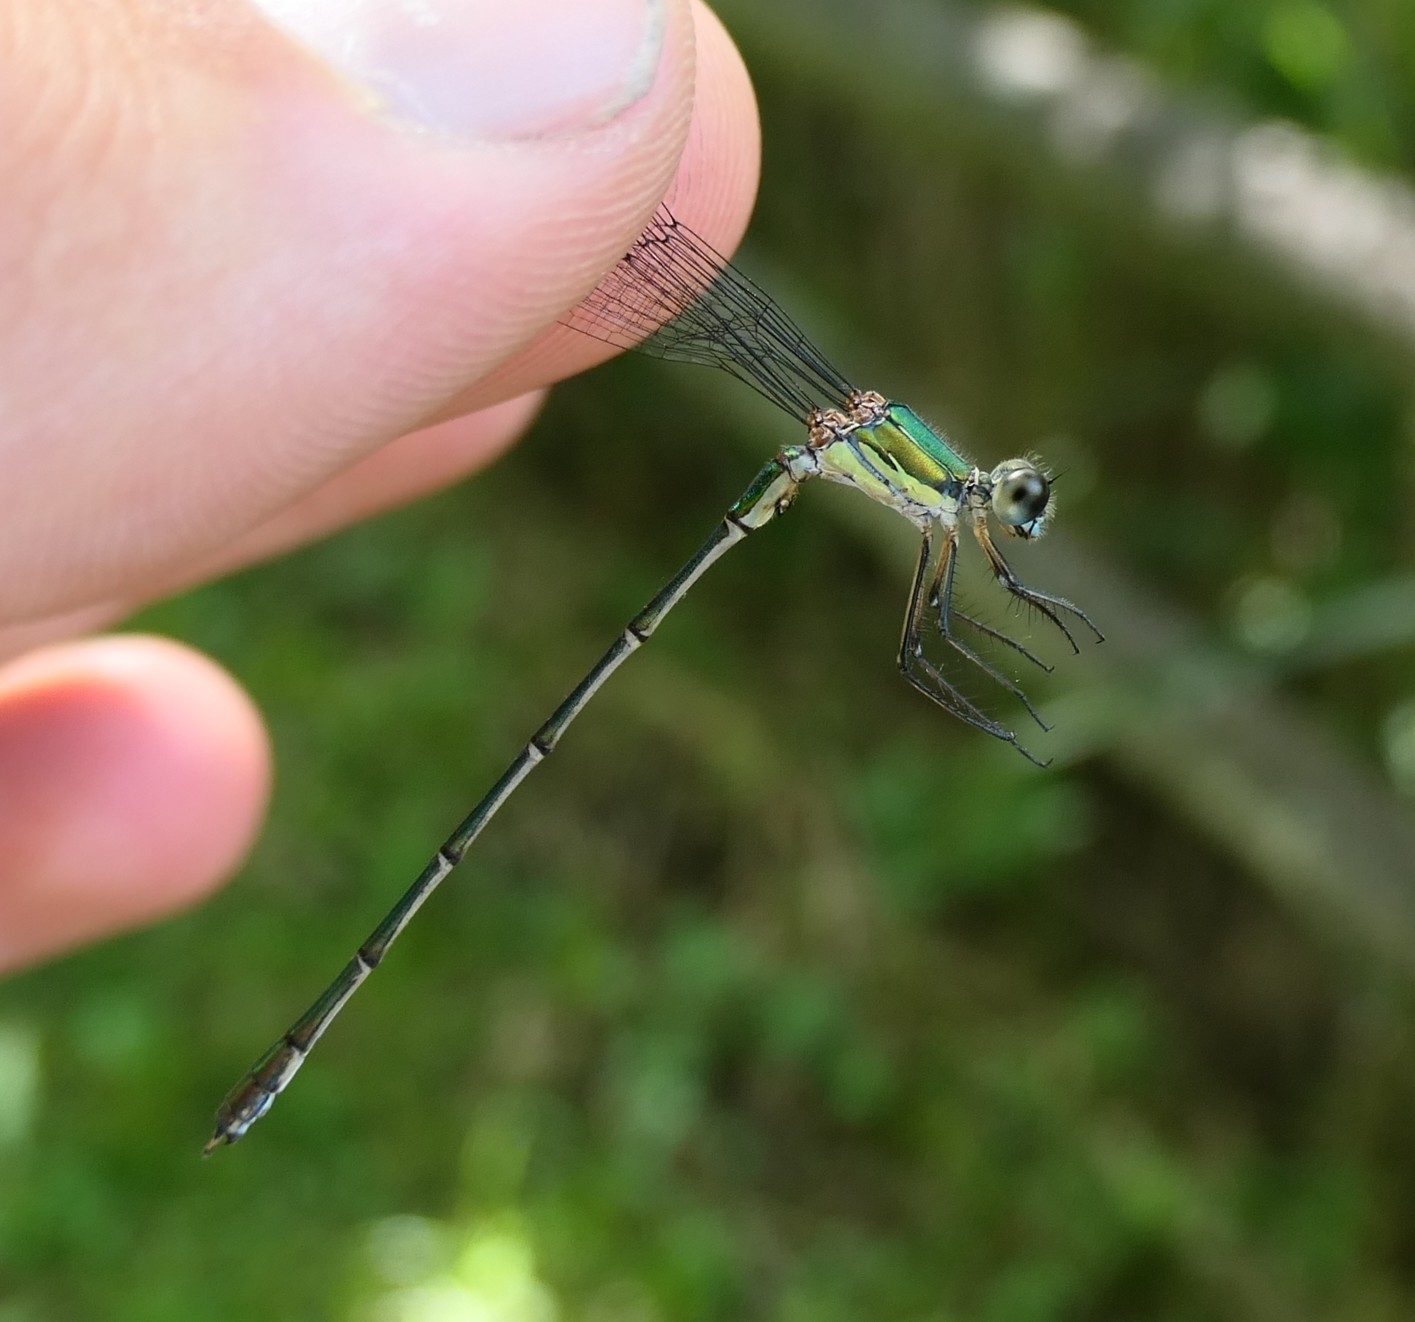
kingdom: Animalia
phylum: Arthropoda
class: Insecta
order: Odonata
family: Lestidae
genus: Chalcolestes
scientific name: Chalcolestes viridis
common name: Green emerald damselfly
